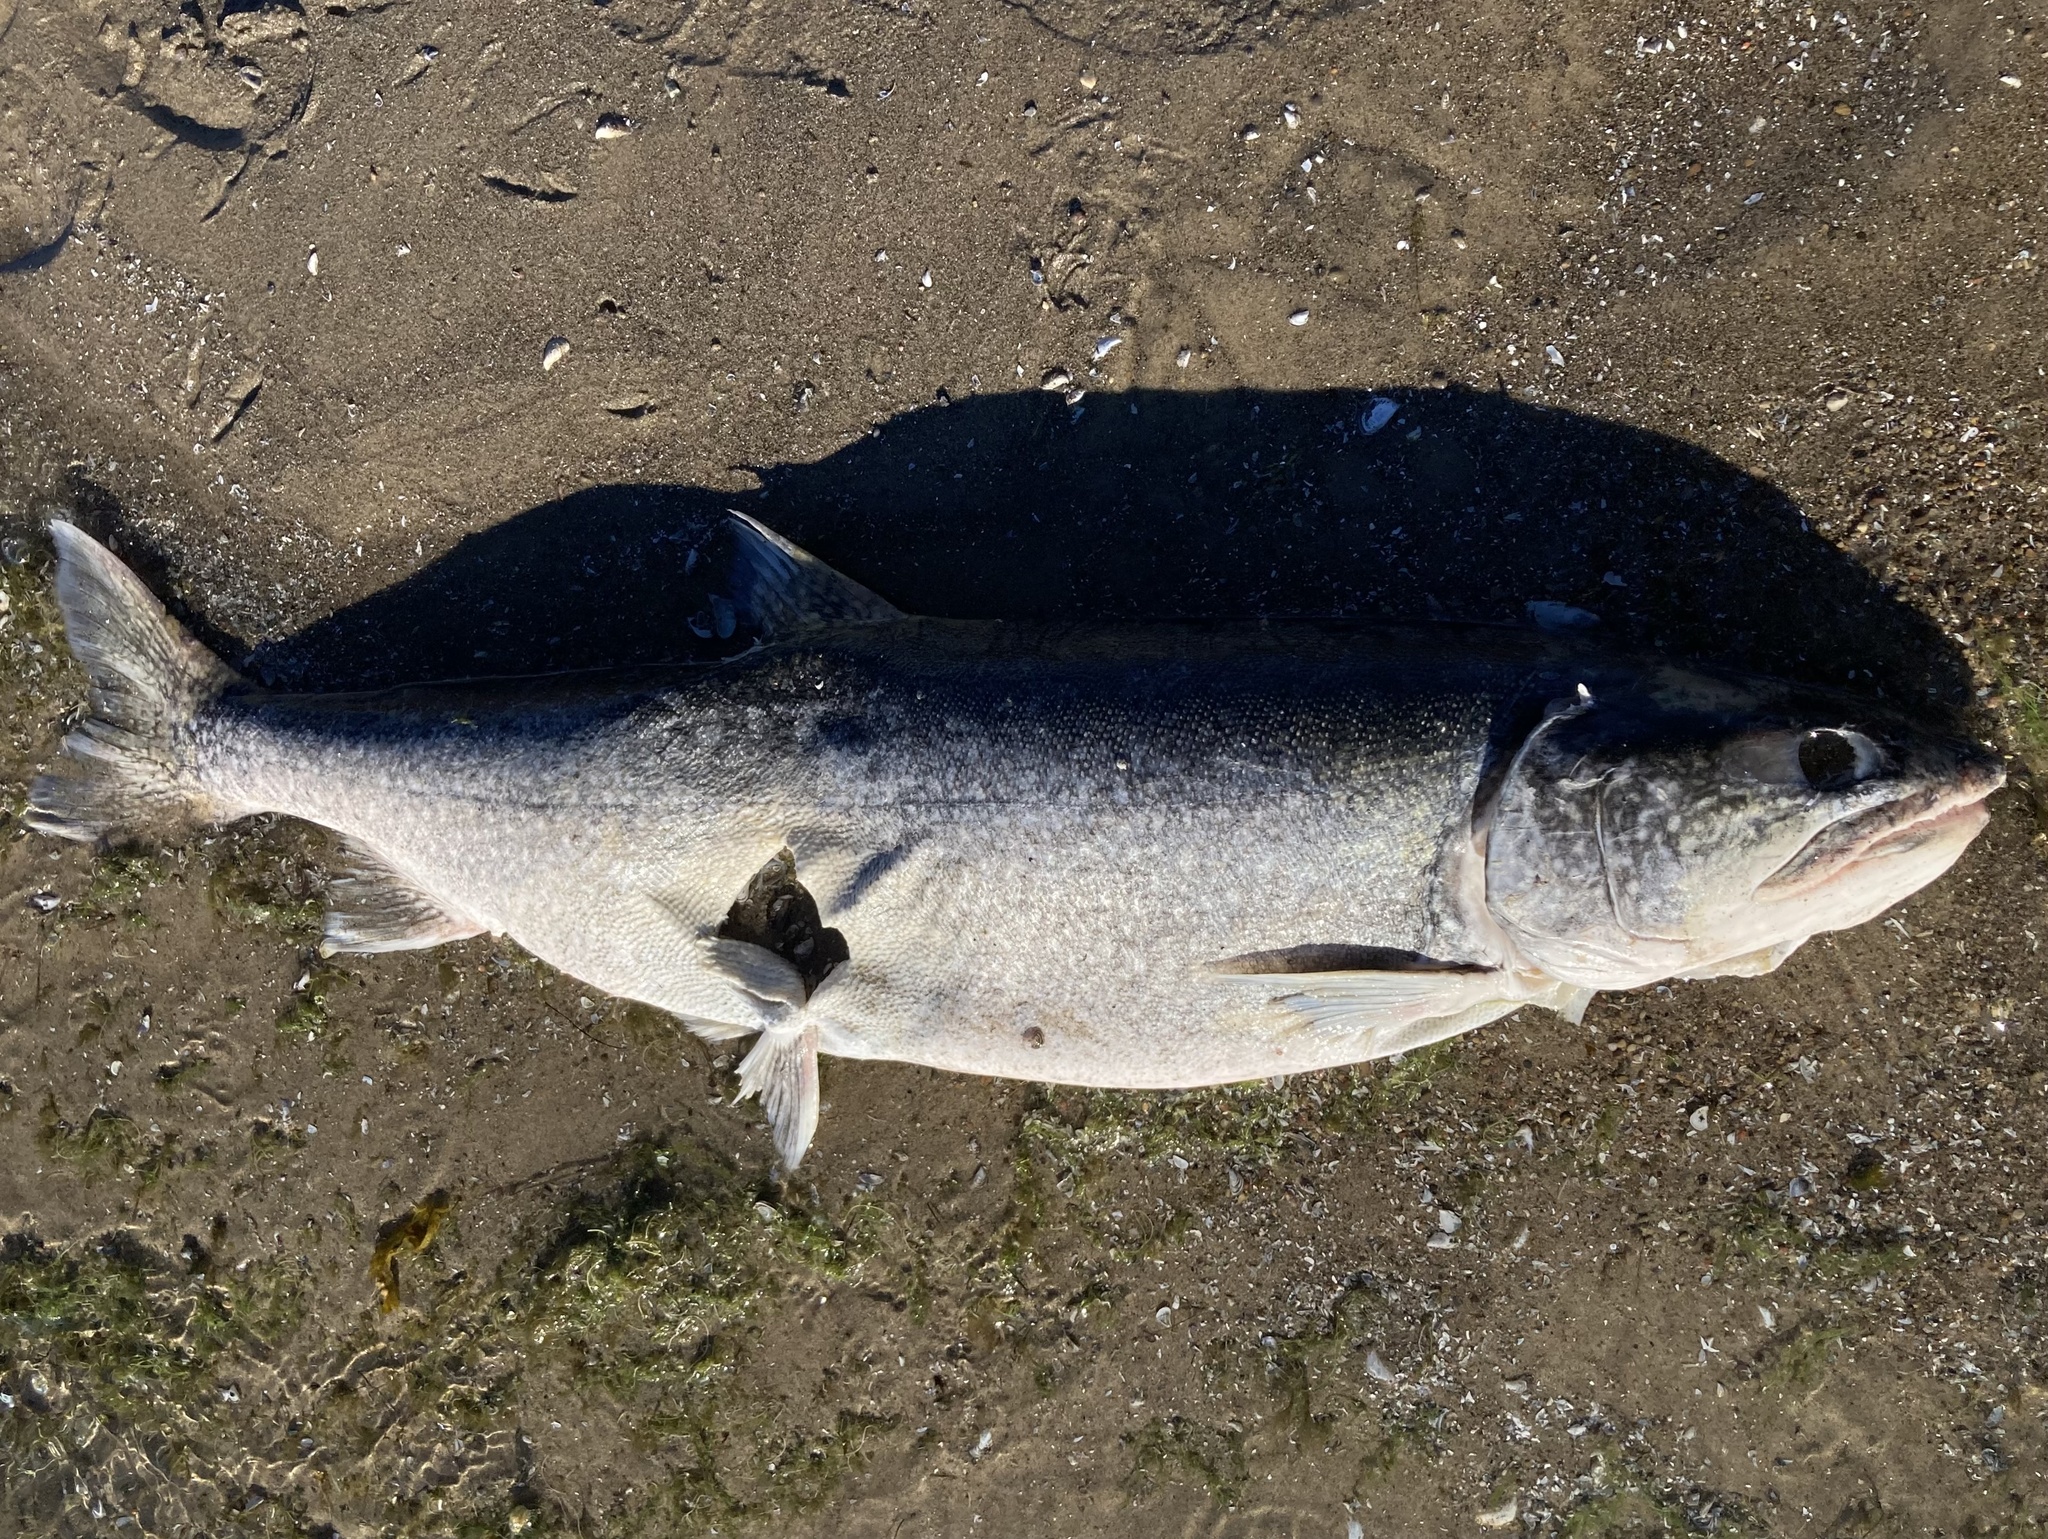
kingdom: Animalia
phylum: Chordata
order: Salmoniformes
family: Salmonidae
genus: Salvelinus
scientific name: Salvelinus namaycush
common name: American lake charr
